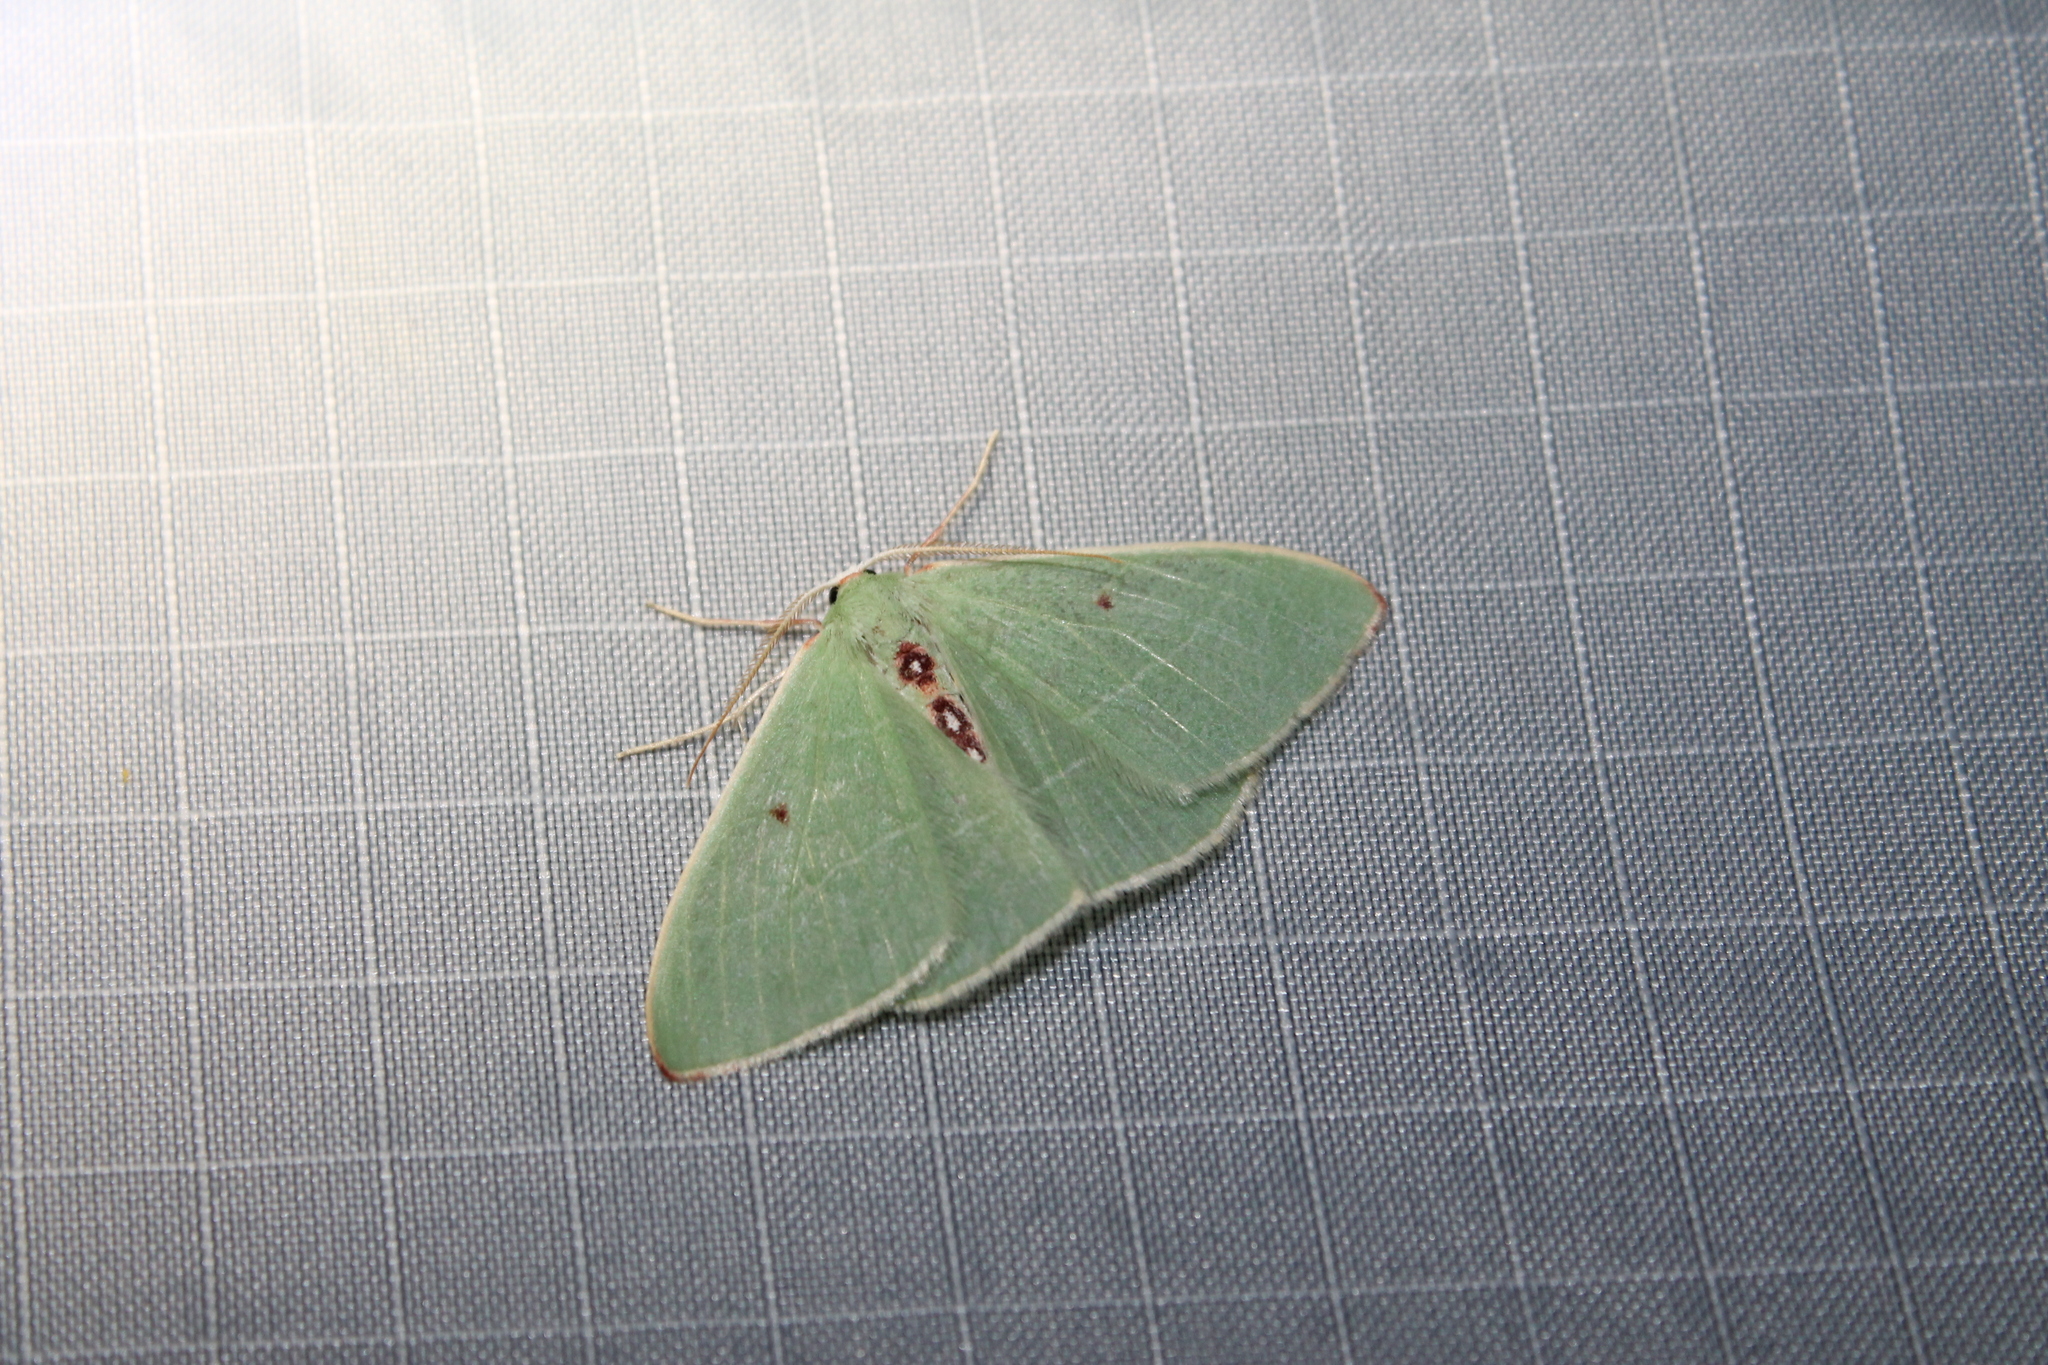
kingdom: Animalia
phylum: Arthropoda
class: Insecta
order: Lepidoptera
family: Geometridae
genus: Nemoria
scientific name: Nemoria darwiniata
